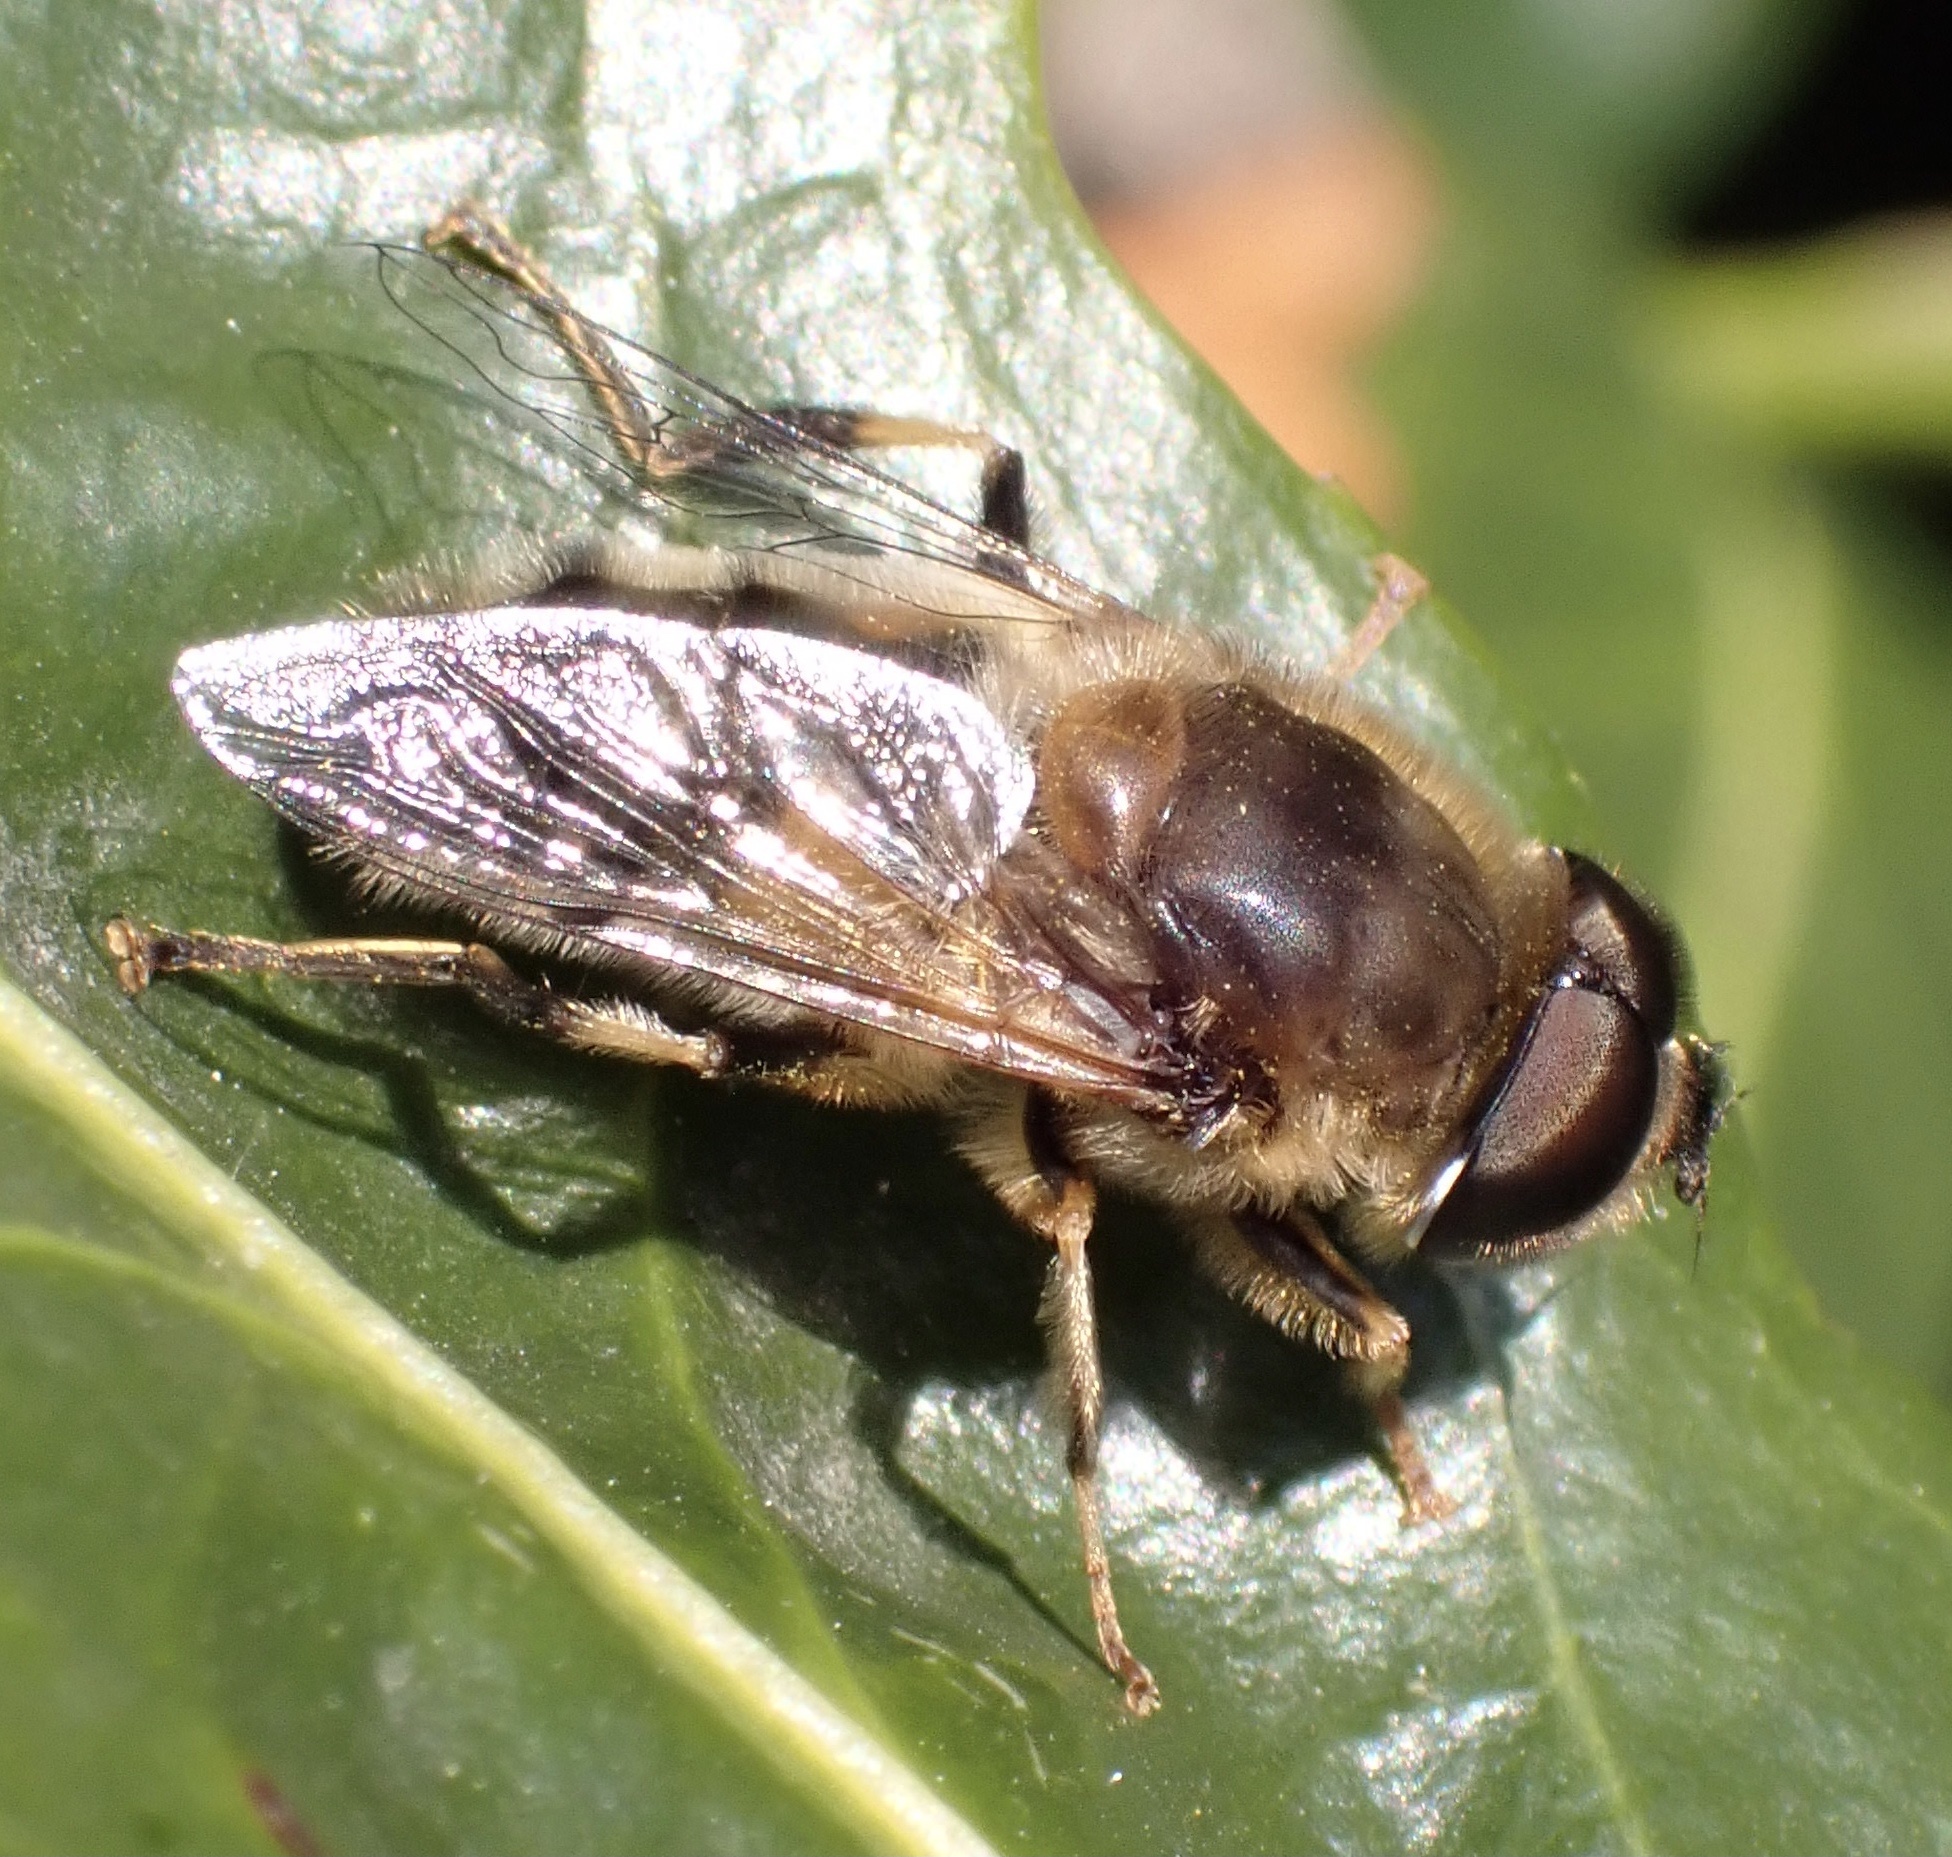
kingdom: Animalia
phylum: Arthropoda
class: Insecta
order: Diptera
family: Syrphidae
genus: Eristalis
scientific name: Eristalis pertinax
